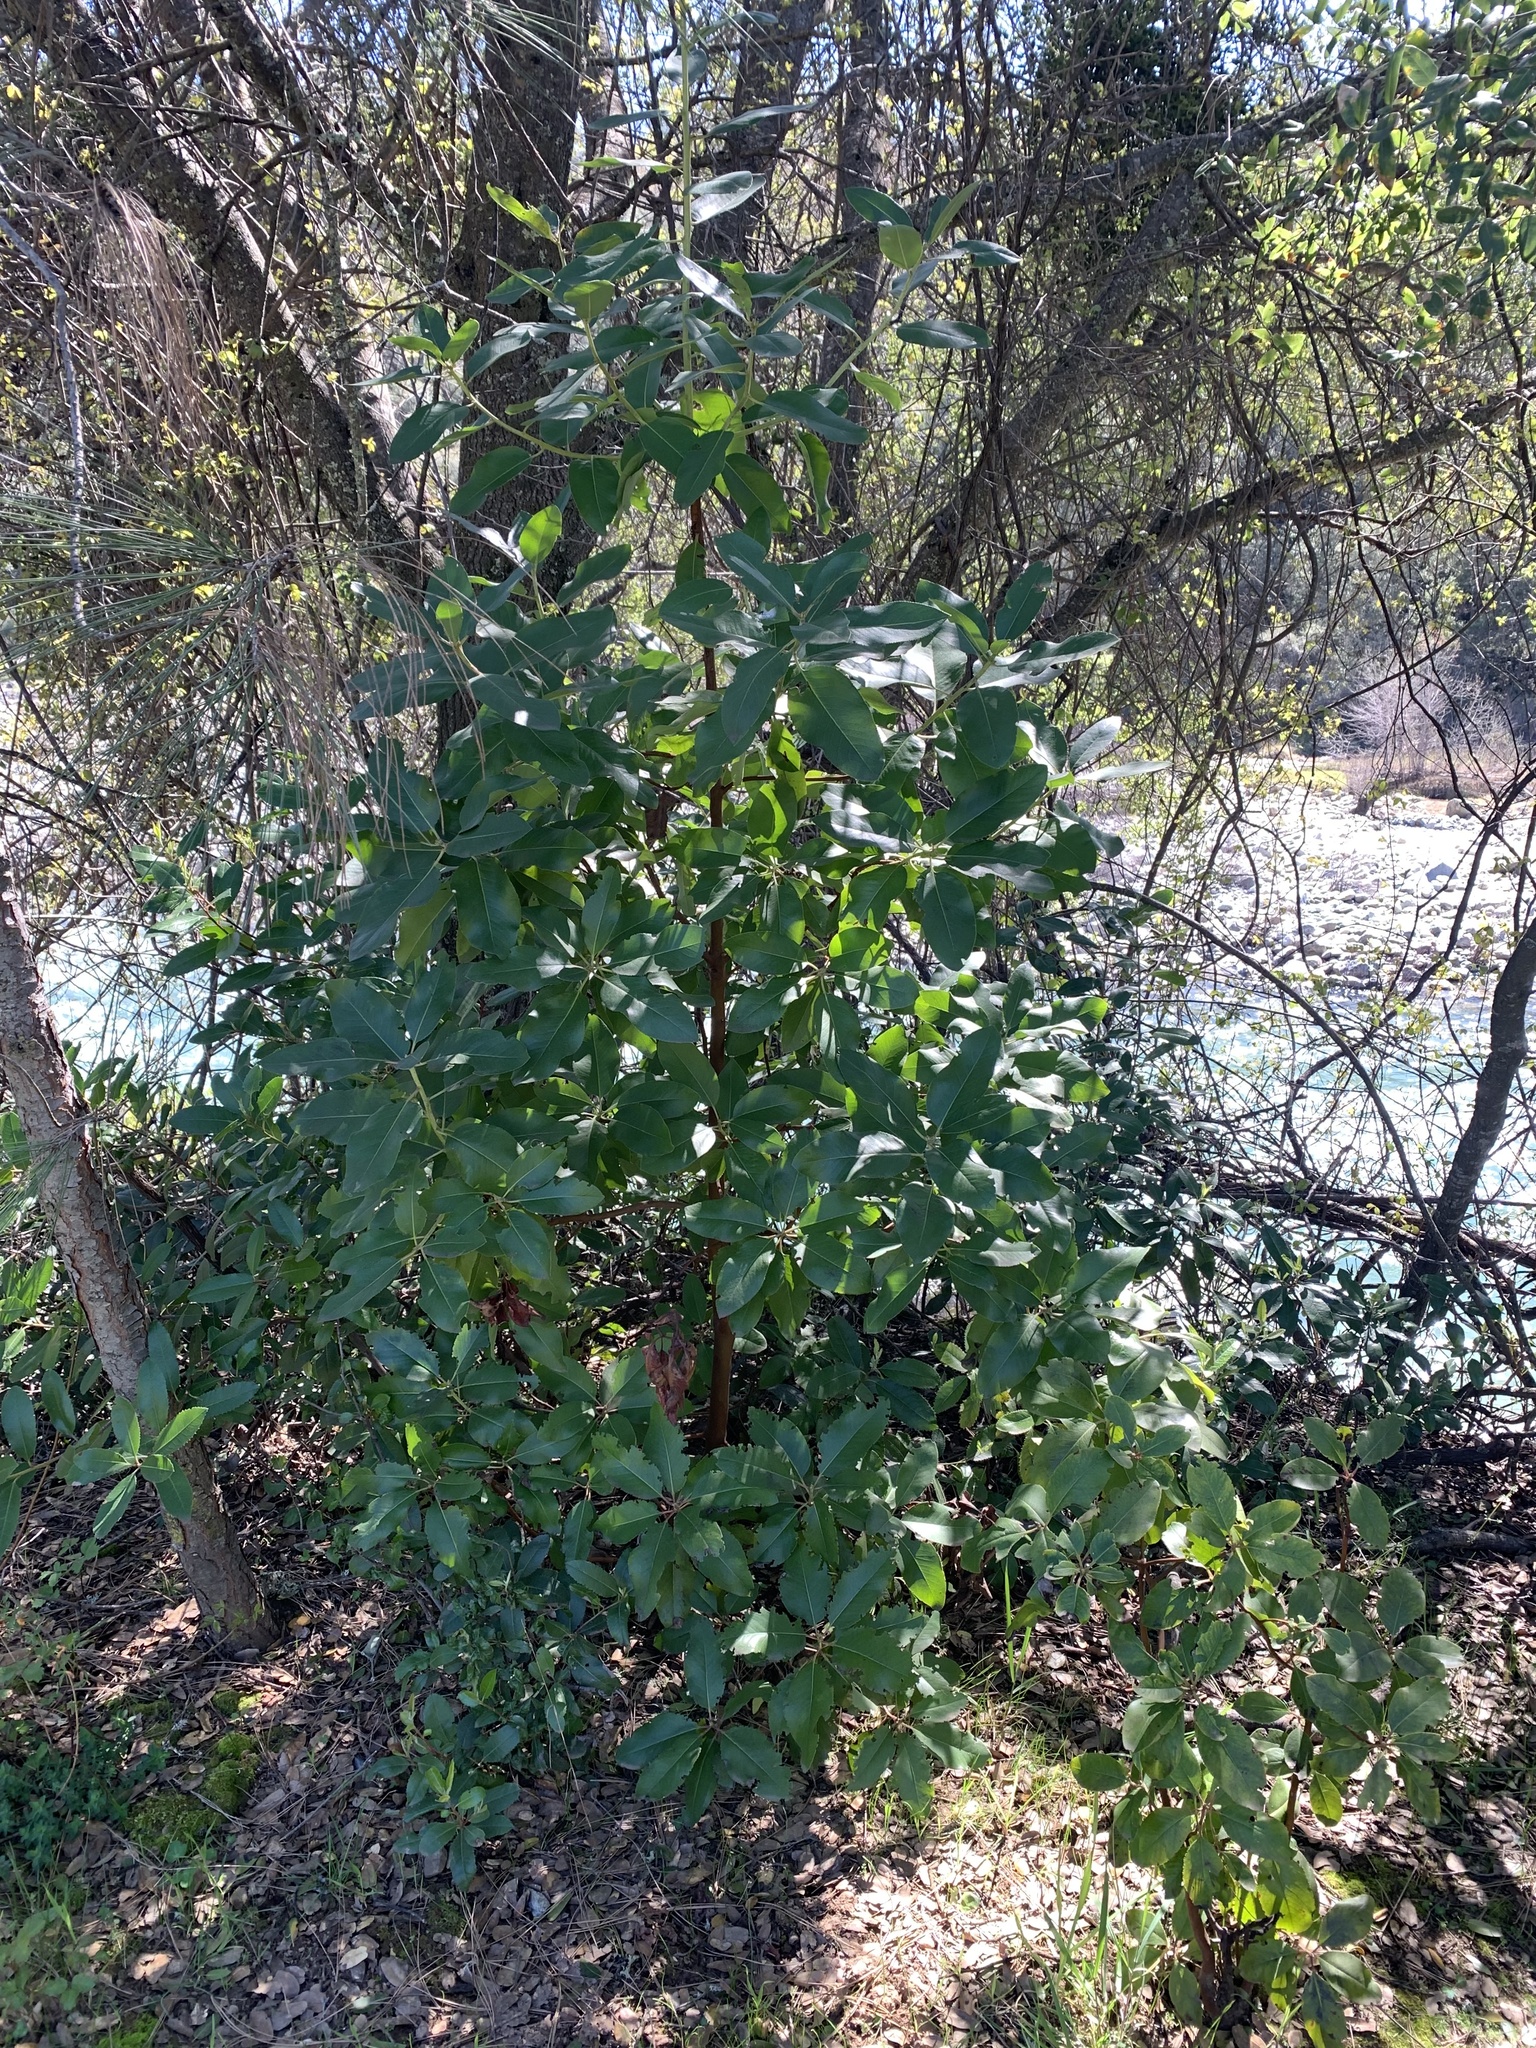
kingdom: Plantae
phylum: Tracheophyta
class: Magnoliopsida
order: Ericales
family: Ericaceae
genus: Arbutus
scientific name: Arbutus menziesii
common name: Pacific madrone
